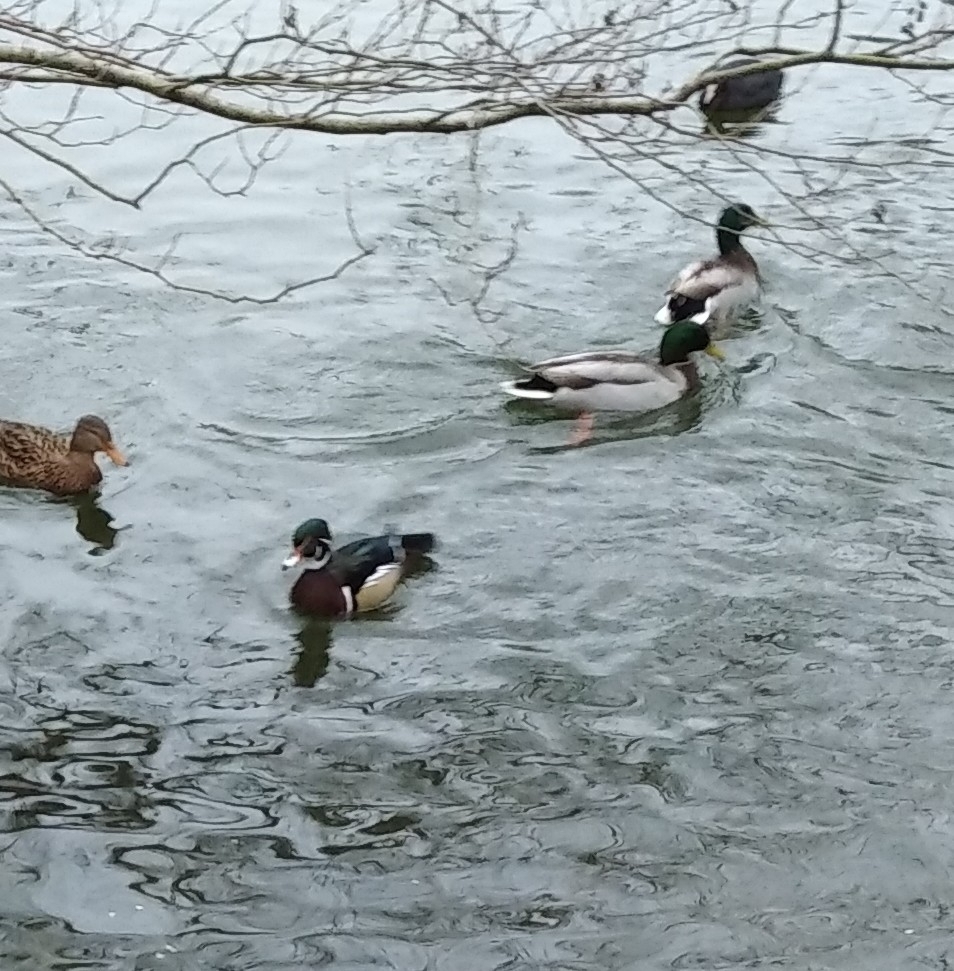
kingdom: Animalia
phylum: Chordata
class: Aves
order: Anseriformes
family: Anatidae
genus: Aix
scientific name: Aix sponsa
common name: Wood duck
